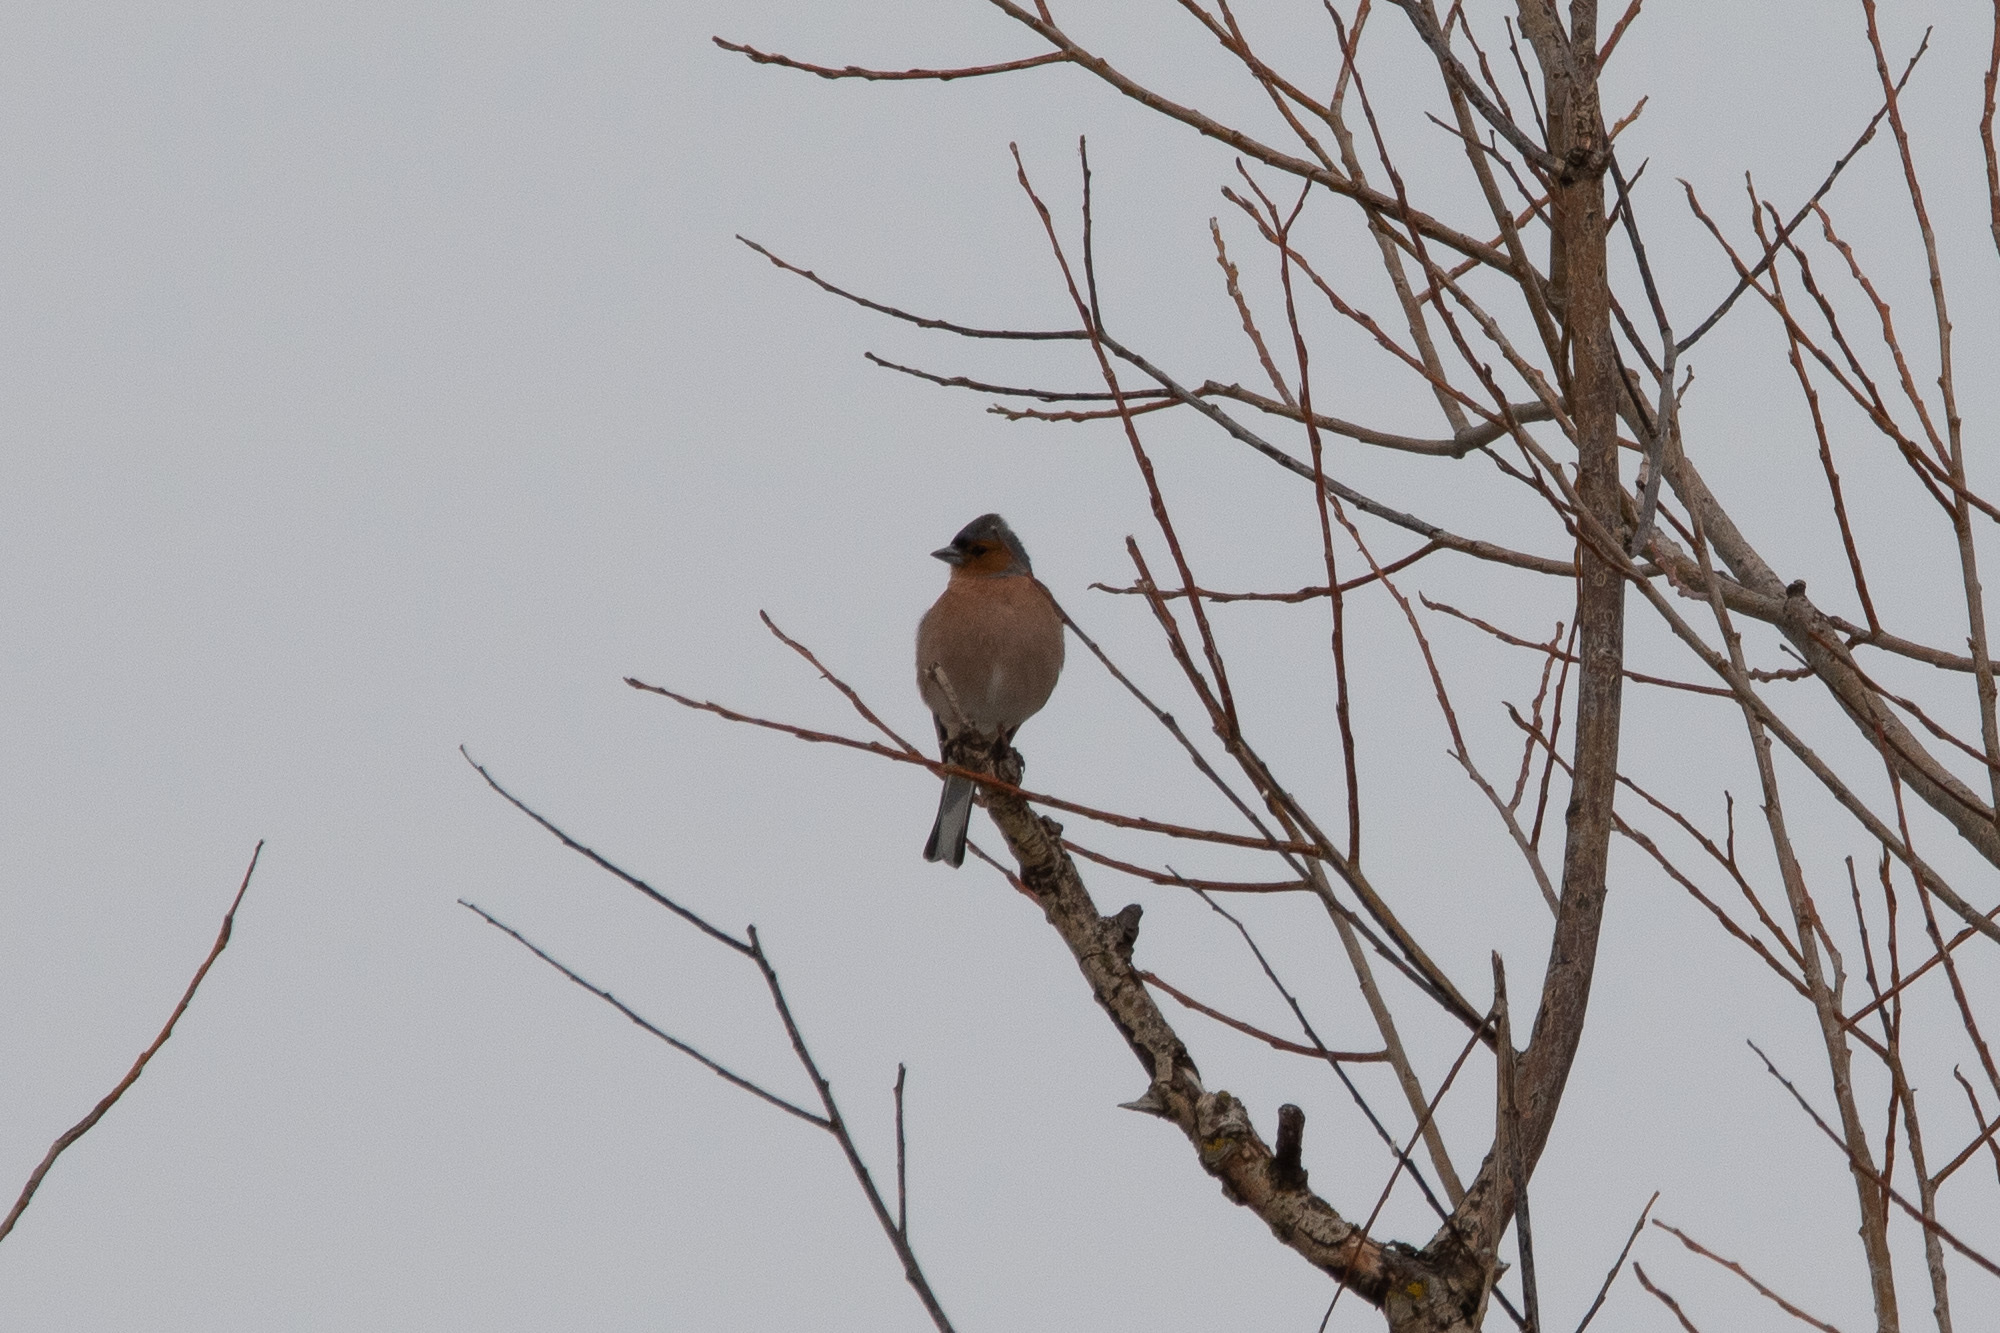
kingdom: Animalia
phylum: Chordata
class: Aves
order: Passeriformes
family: Fringillidae
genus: Fringilla
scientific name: Fringilla coelebs
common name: Common chaffinch
